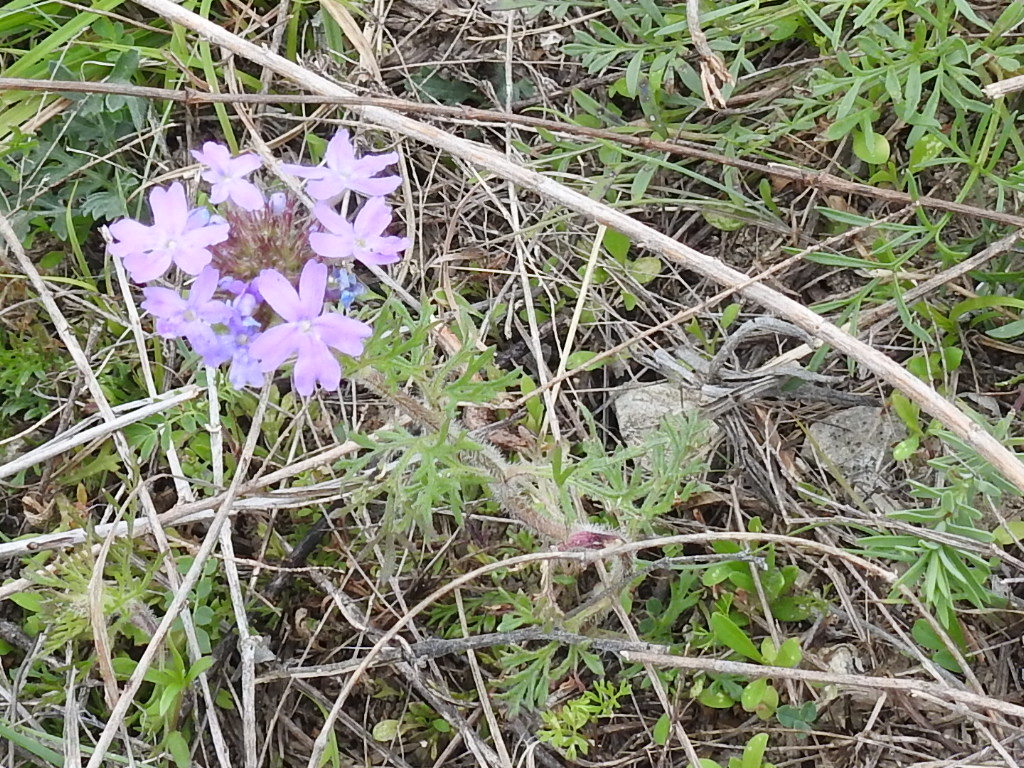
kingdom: Plantae
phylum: Tracheophyta
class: Magnoliopsida
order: Lamiales
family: Verbenaceae
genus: Verbena
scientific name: Verbena bipinnatifida
